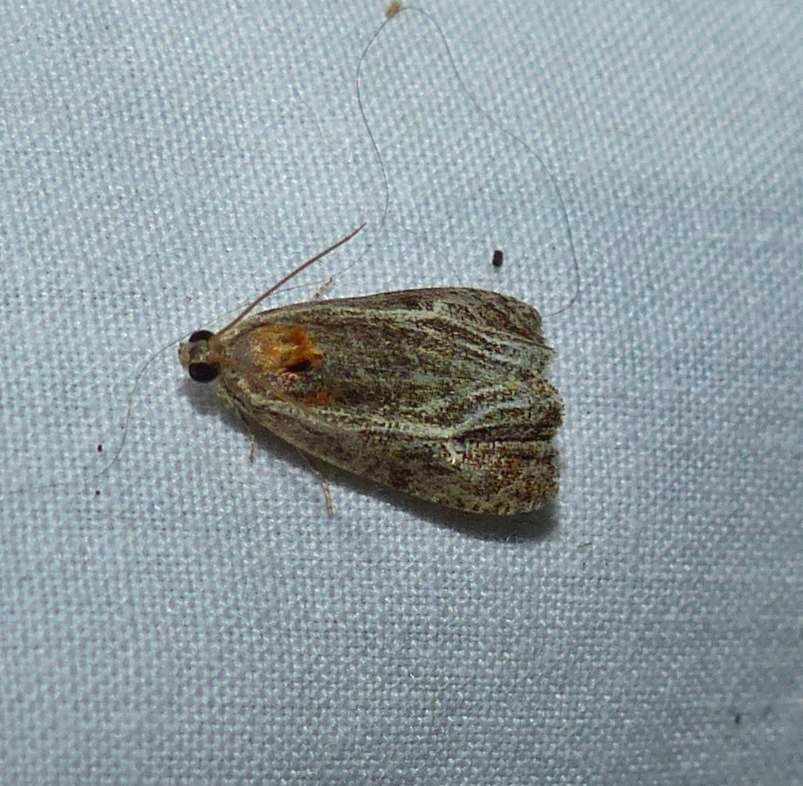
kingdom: Animalia
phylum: Arthropoda
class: Insecta
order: Lepidoptera
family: Tortricidae
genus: Olethreutes
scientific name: Olethreutes quadrifidum
